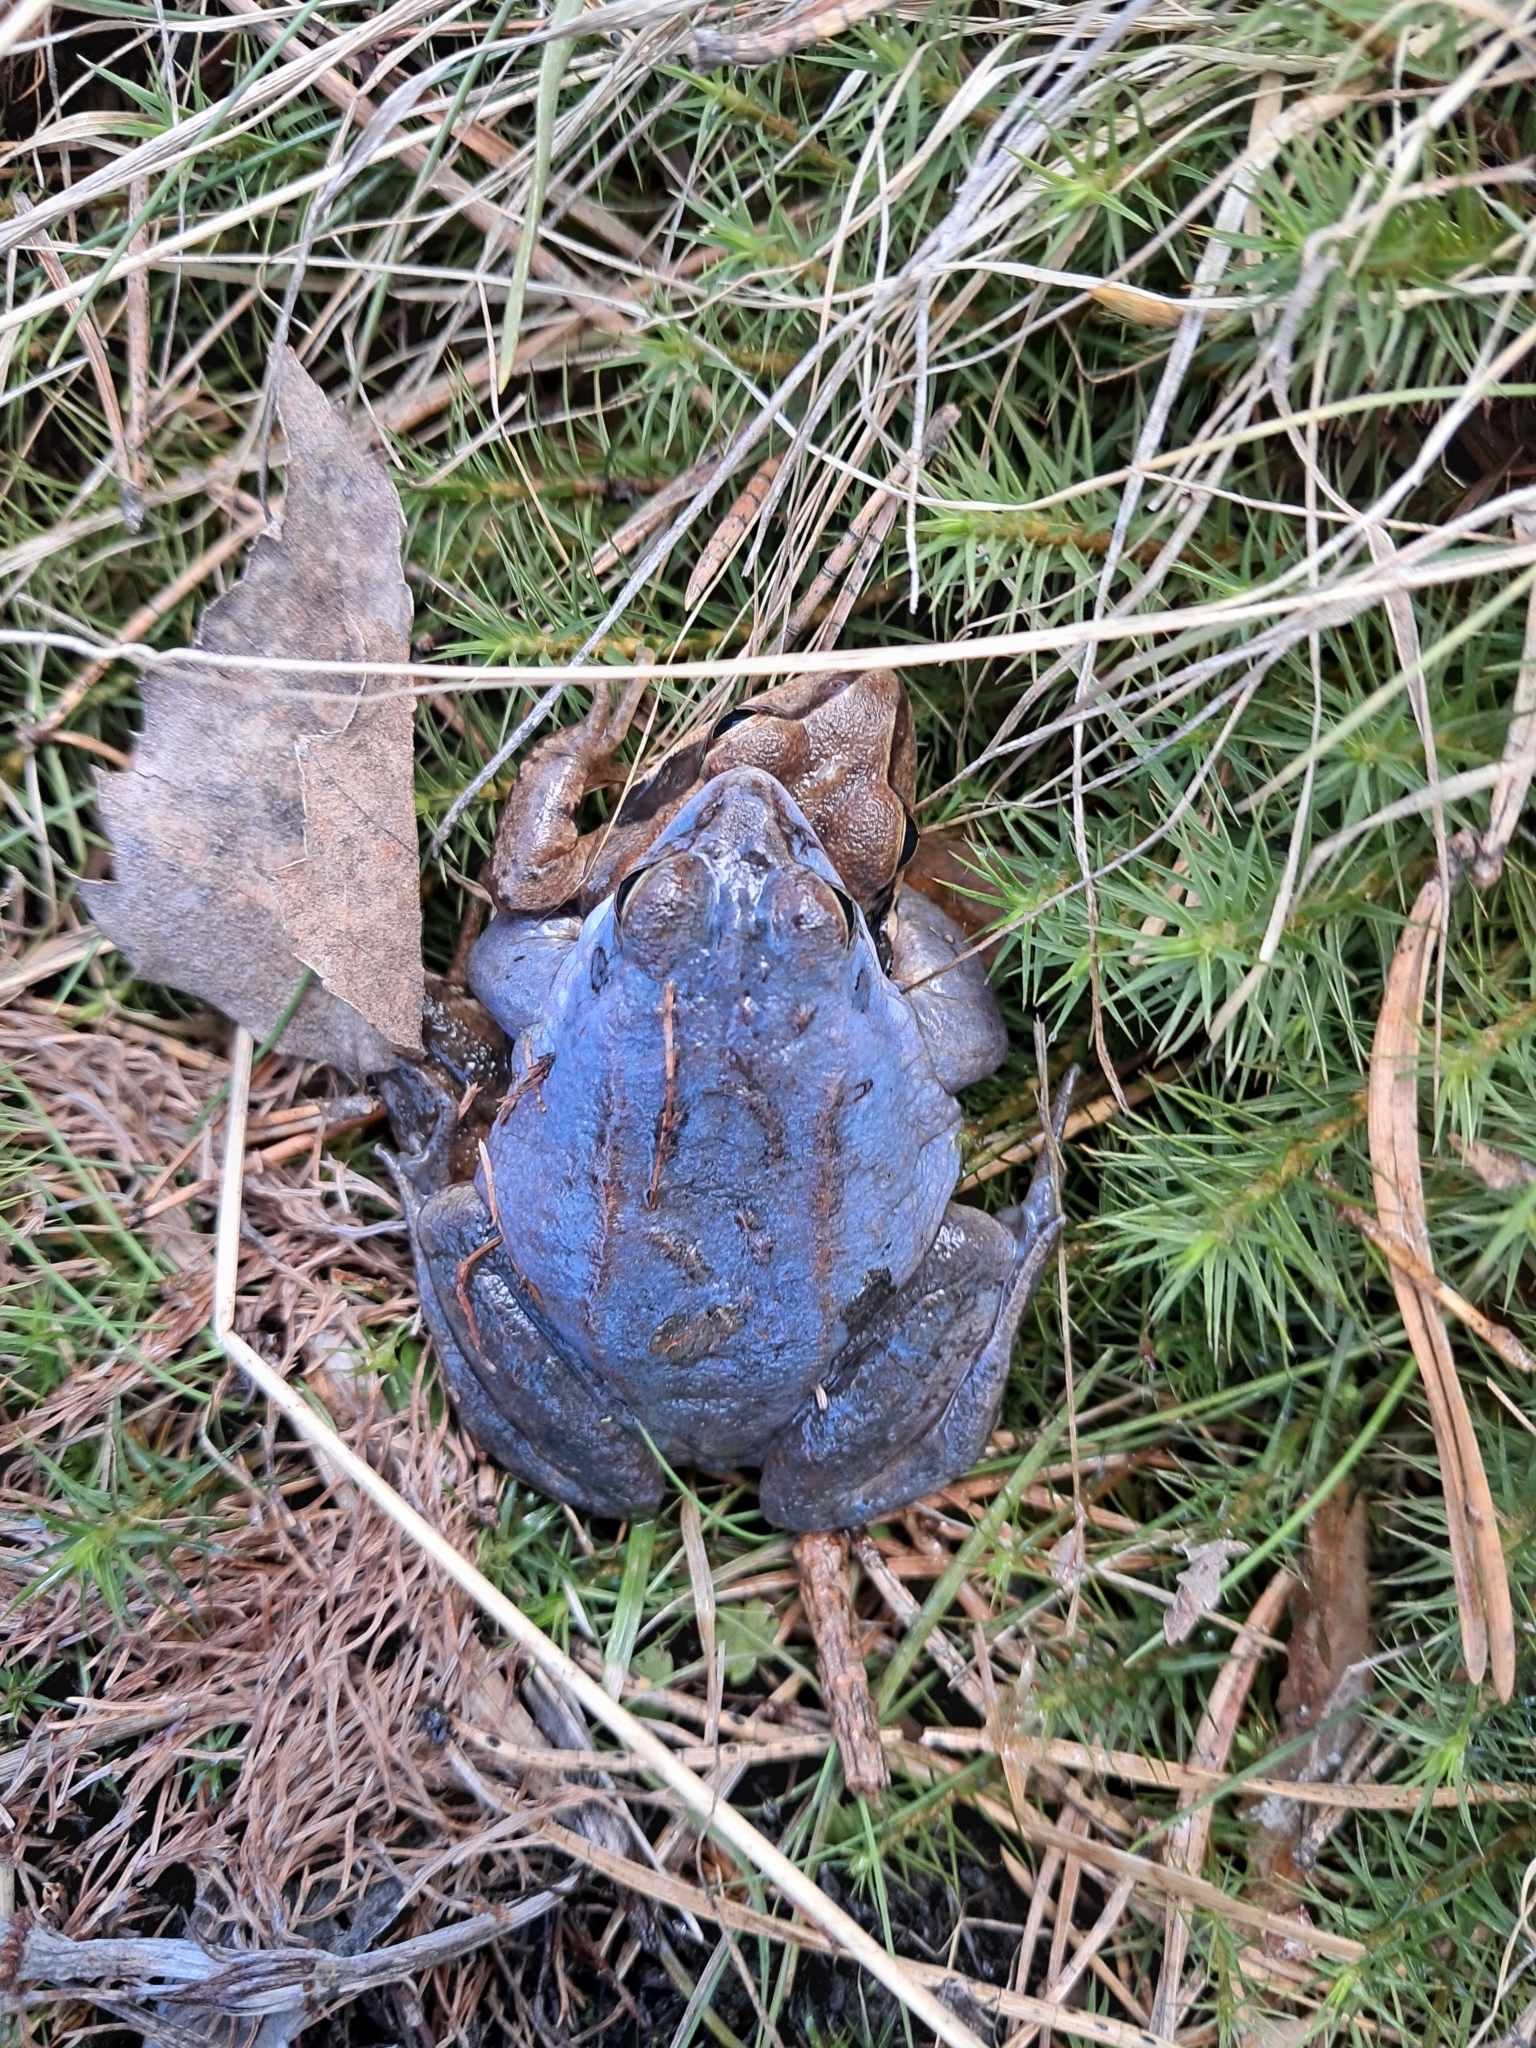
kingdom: Animalia
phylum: Chordata
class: Amphibia
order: Anura
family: Ranidae
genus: Rana
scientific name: Rana arvalis
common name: Moor frog
